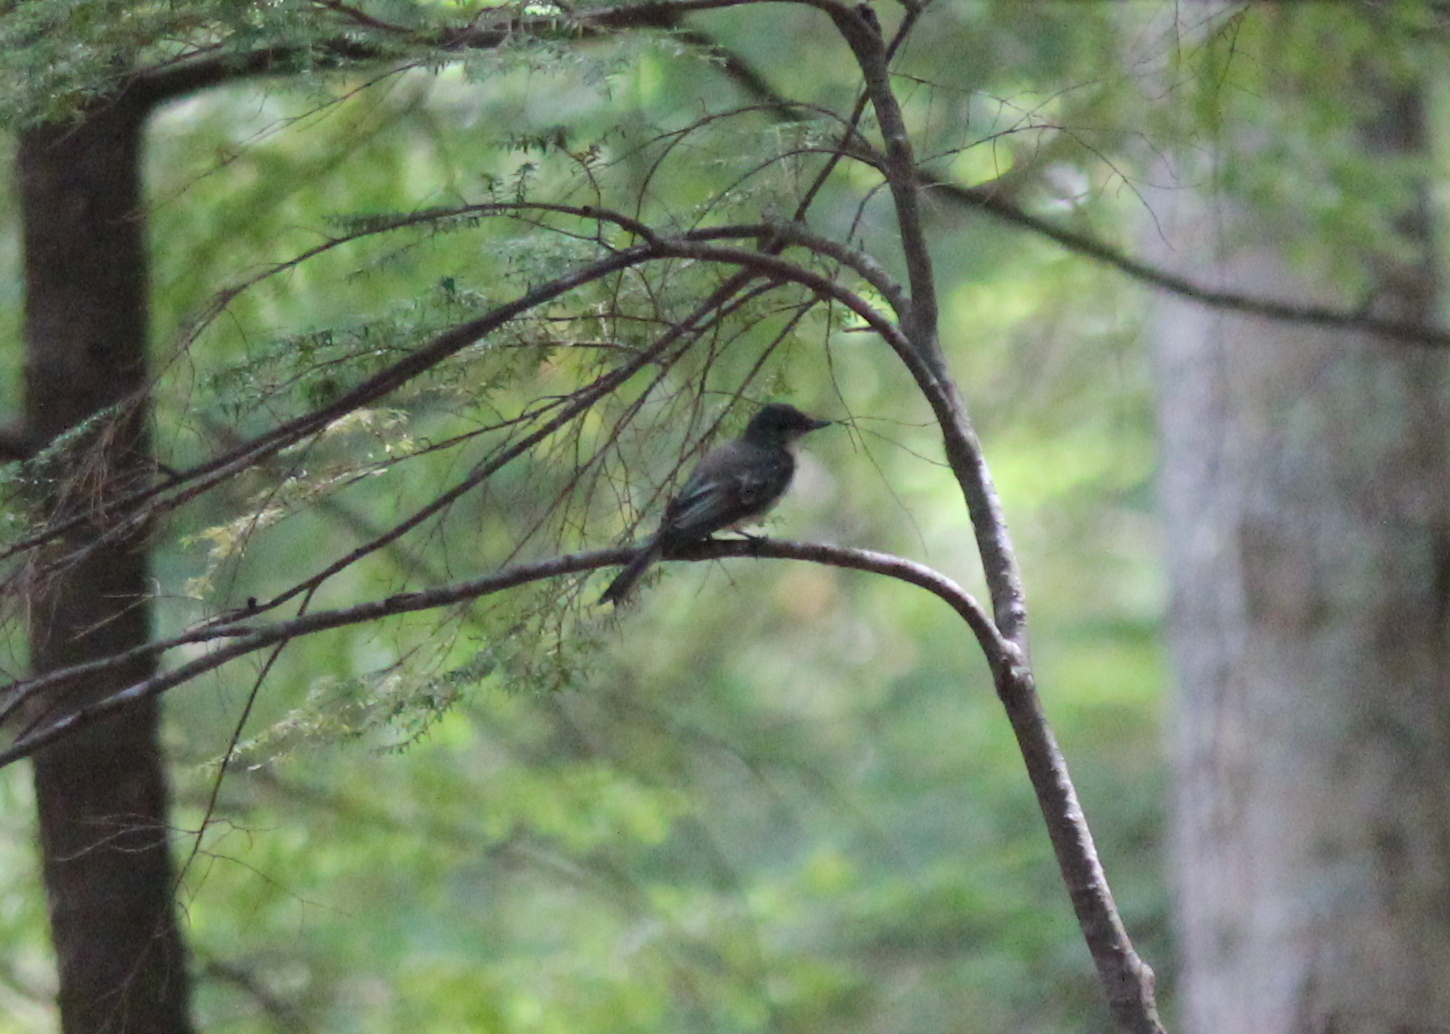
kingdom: Animalia
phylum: Chordata
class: Aves
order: Passeriformes
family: Tyrannidae
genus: Sayornis
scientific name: Sayornis phoebe
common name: Eastern phoebe
